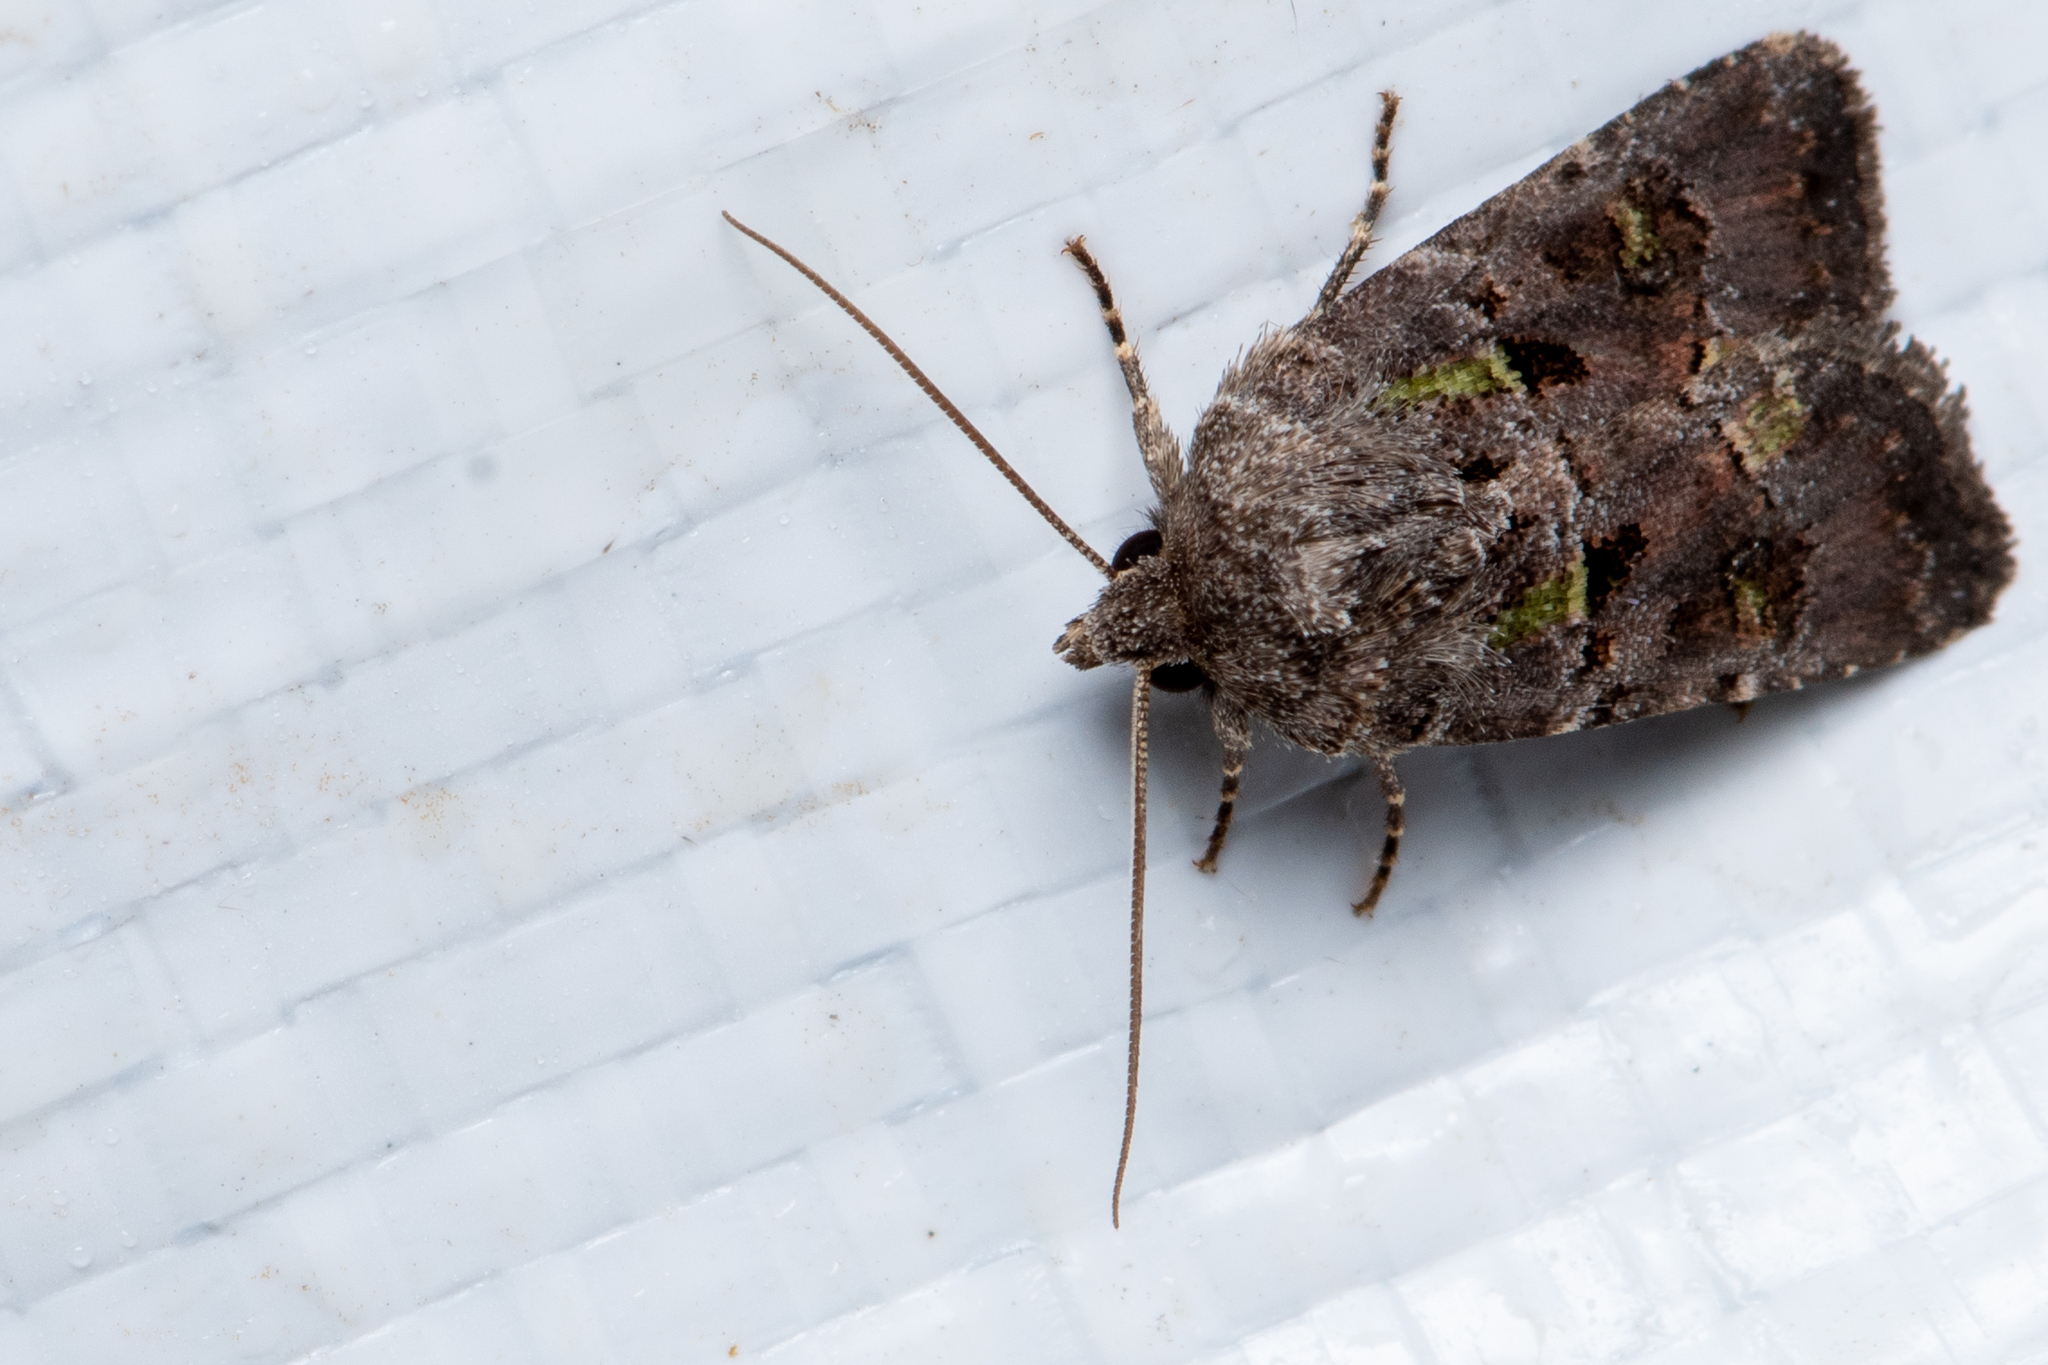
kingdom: Animalia
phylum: Arthropoda
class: Insecta
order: Lepidoptera
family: Noctuidae
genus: Lacinipolia
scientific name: Lacinipolia renigera
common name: Kidney-spotted minor
